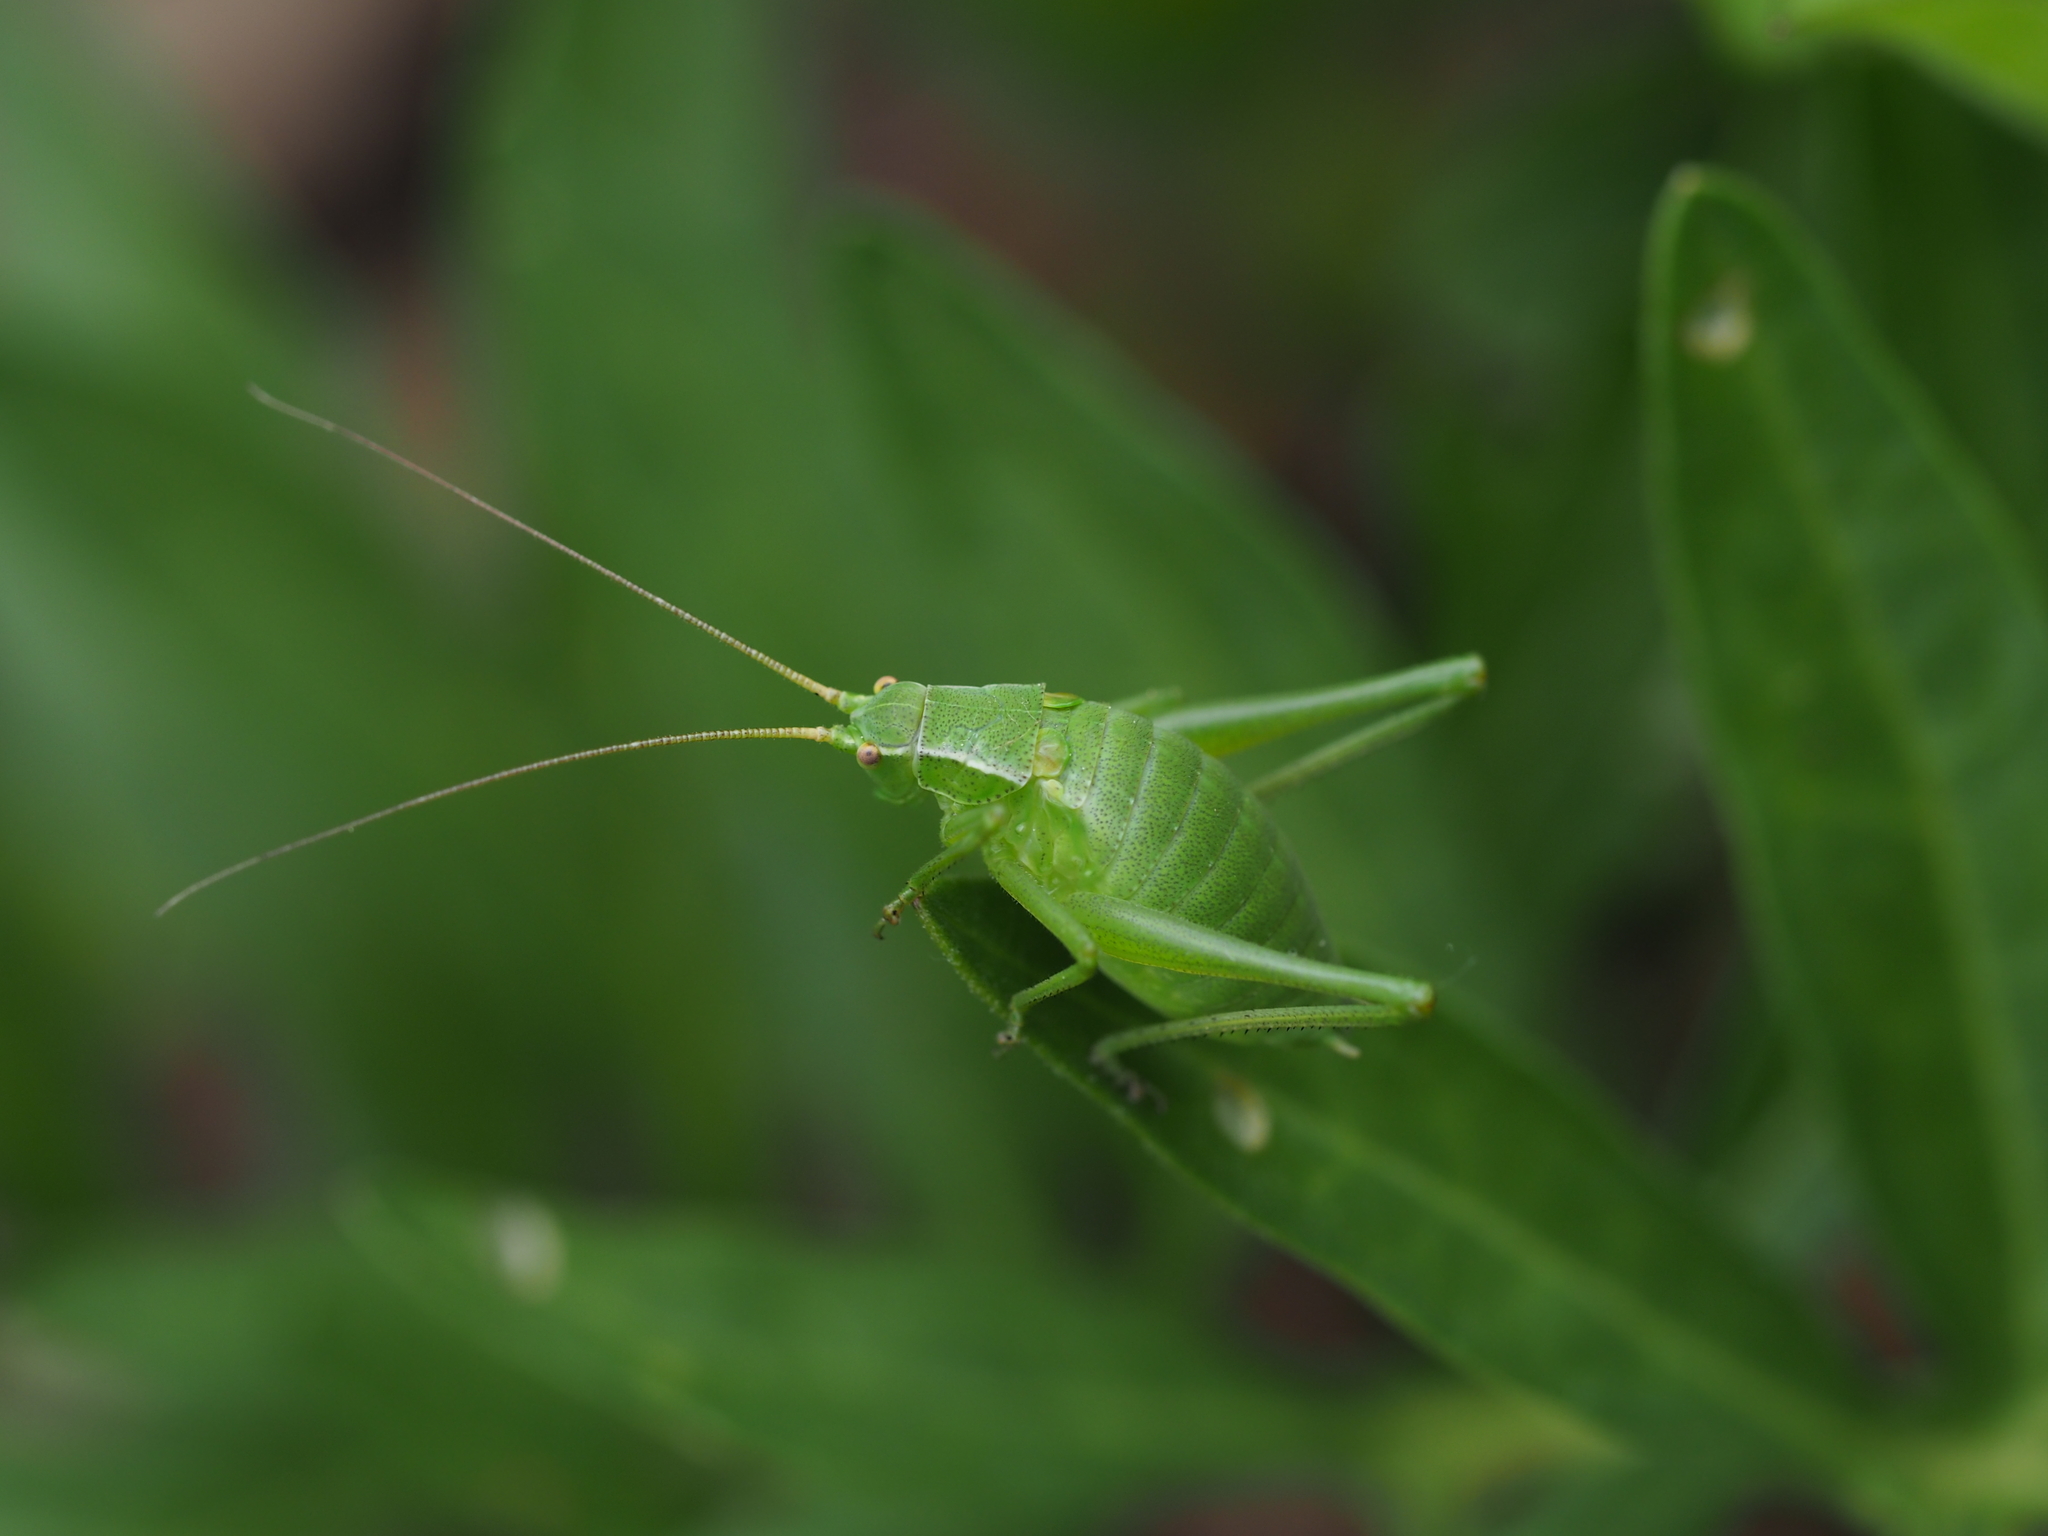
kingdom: Animalia
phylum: Arthropoda
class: Insecta
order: Orthoptera
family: Tettigoniidae
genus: Isophya
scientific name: Isophya
